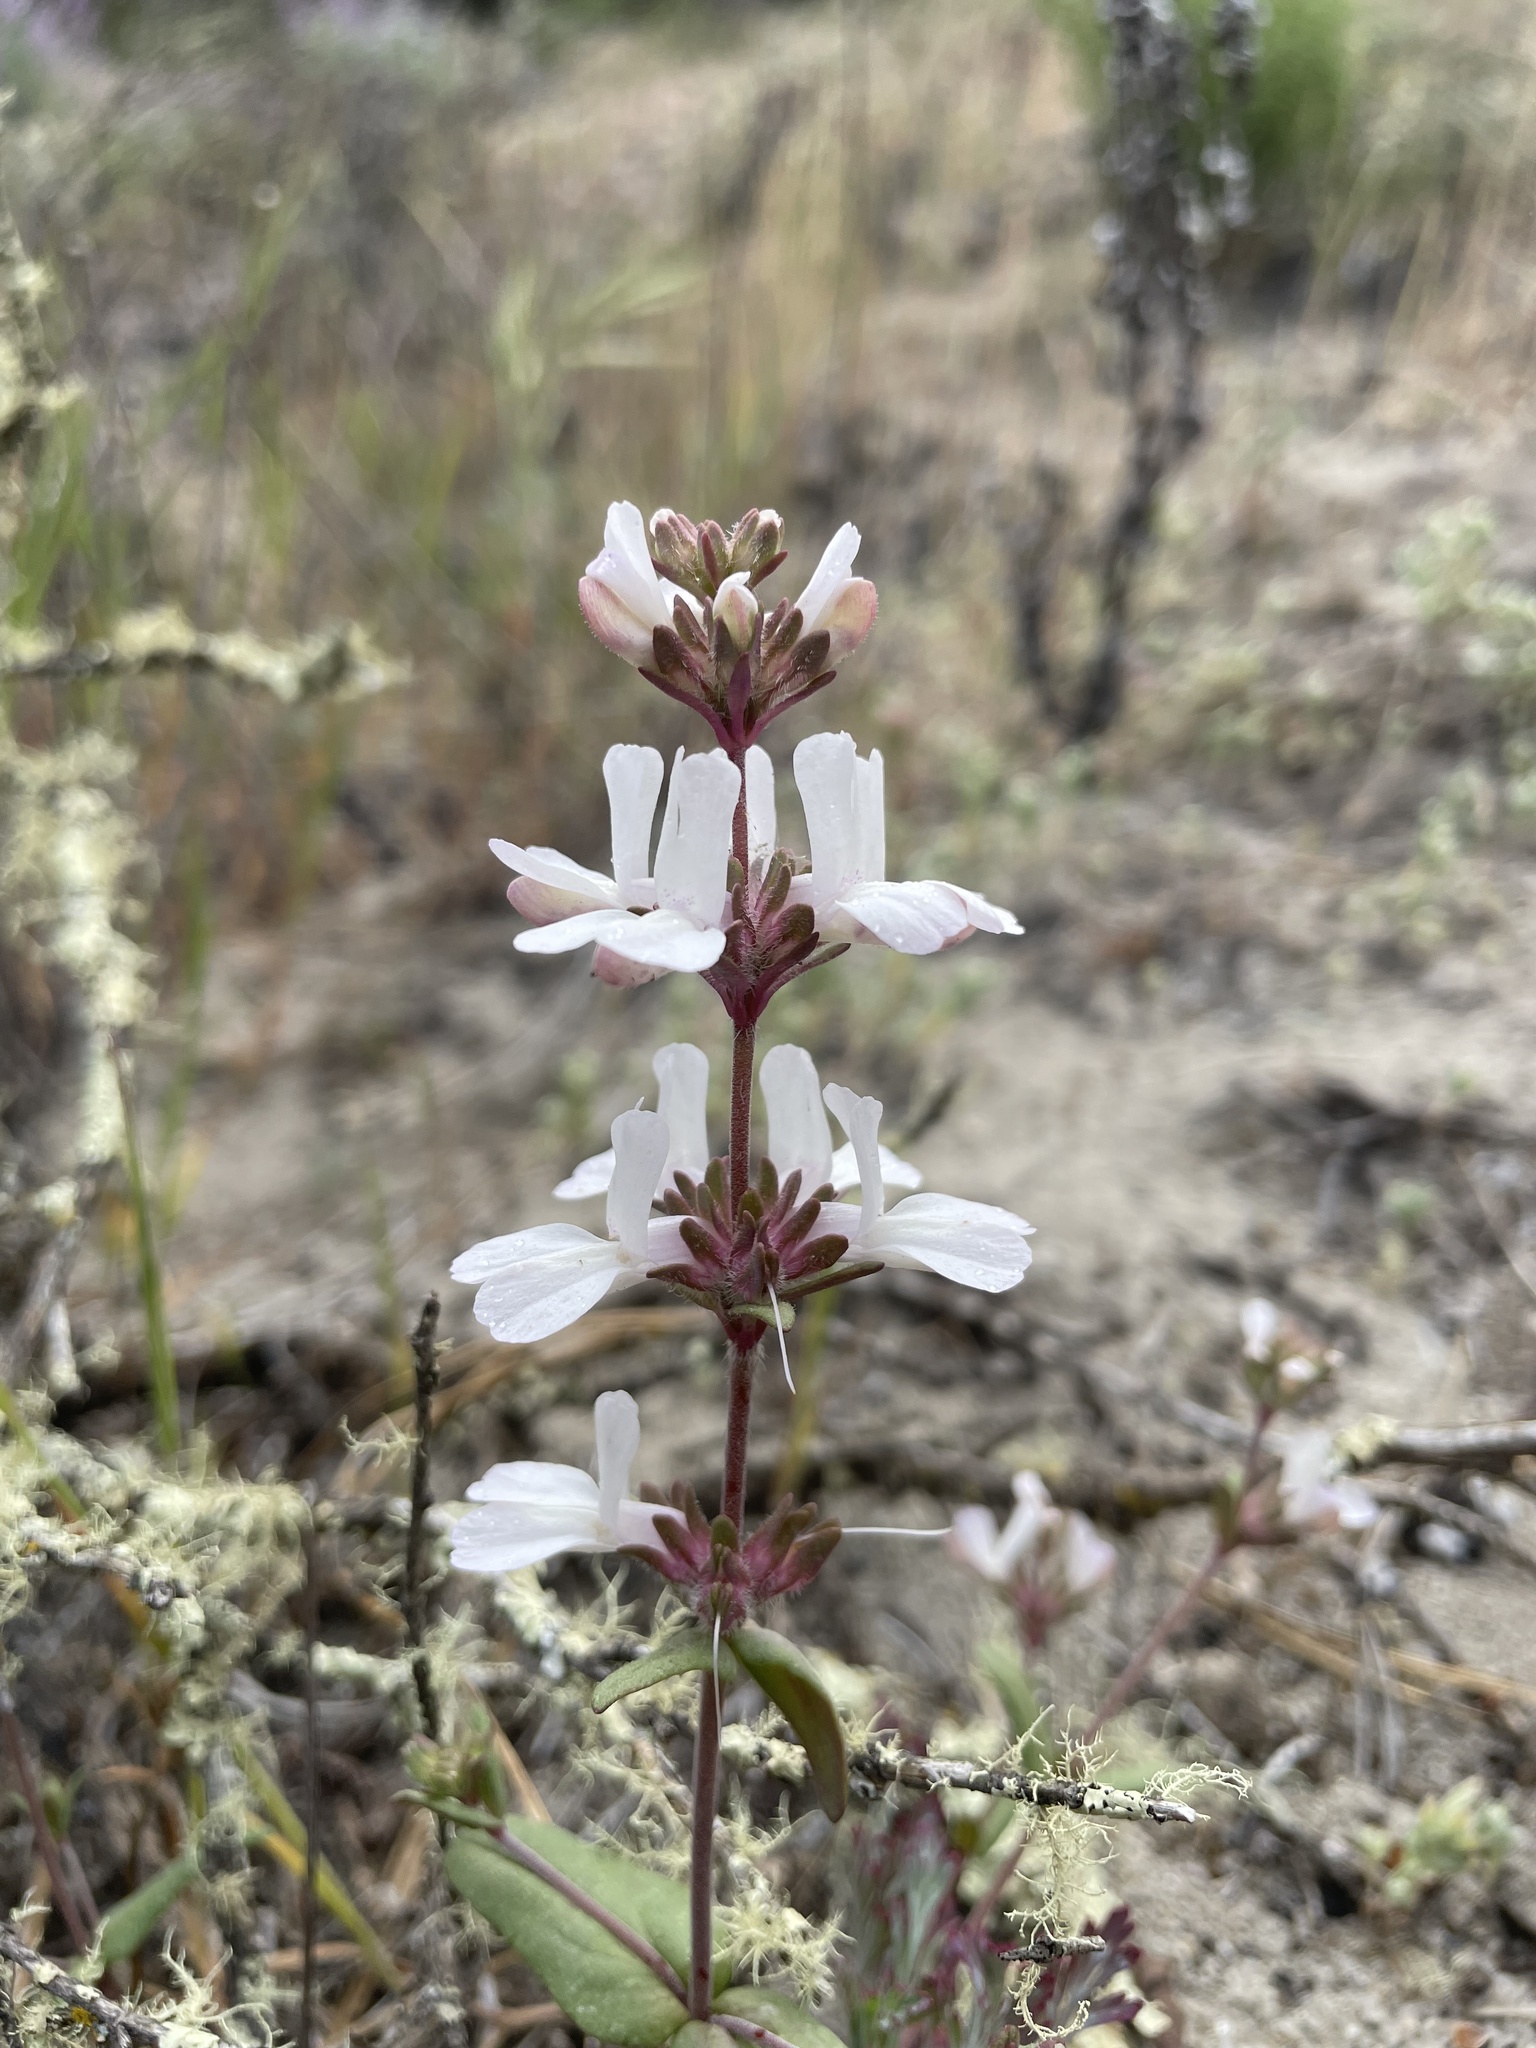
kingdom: Plantae
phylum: Tracheophyta
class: Magnoliopsida
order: Lamiales
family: Plantaginaceae
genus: Collinsia
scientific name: Collinsia bartsiifolia
